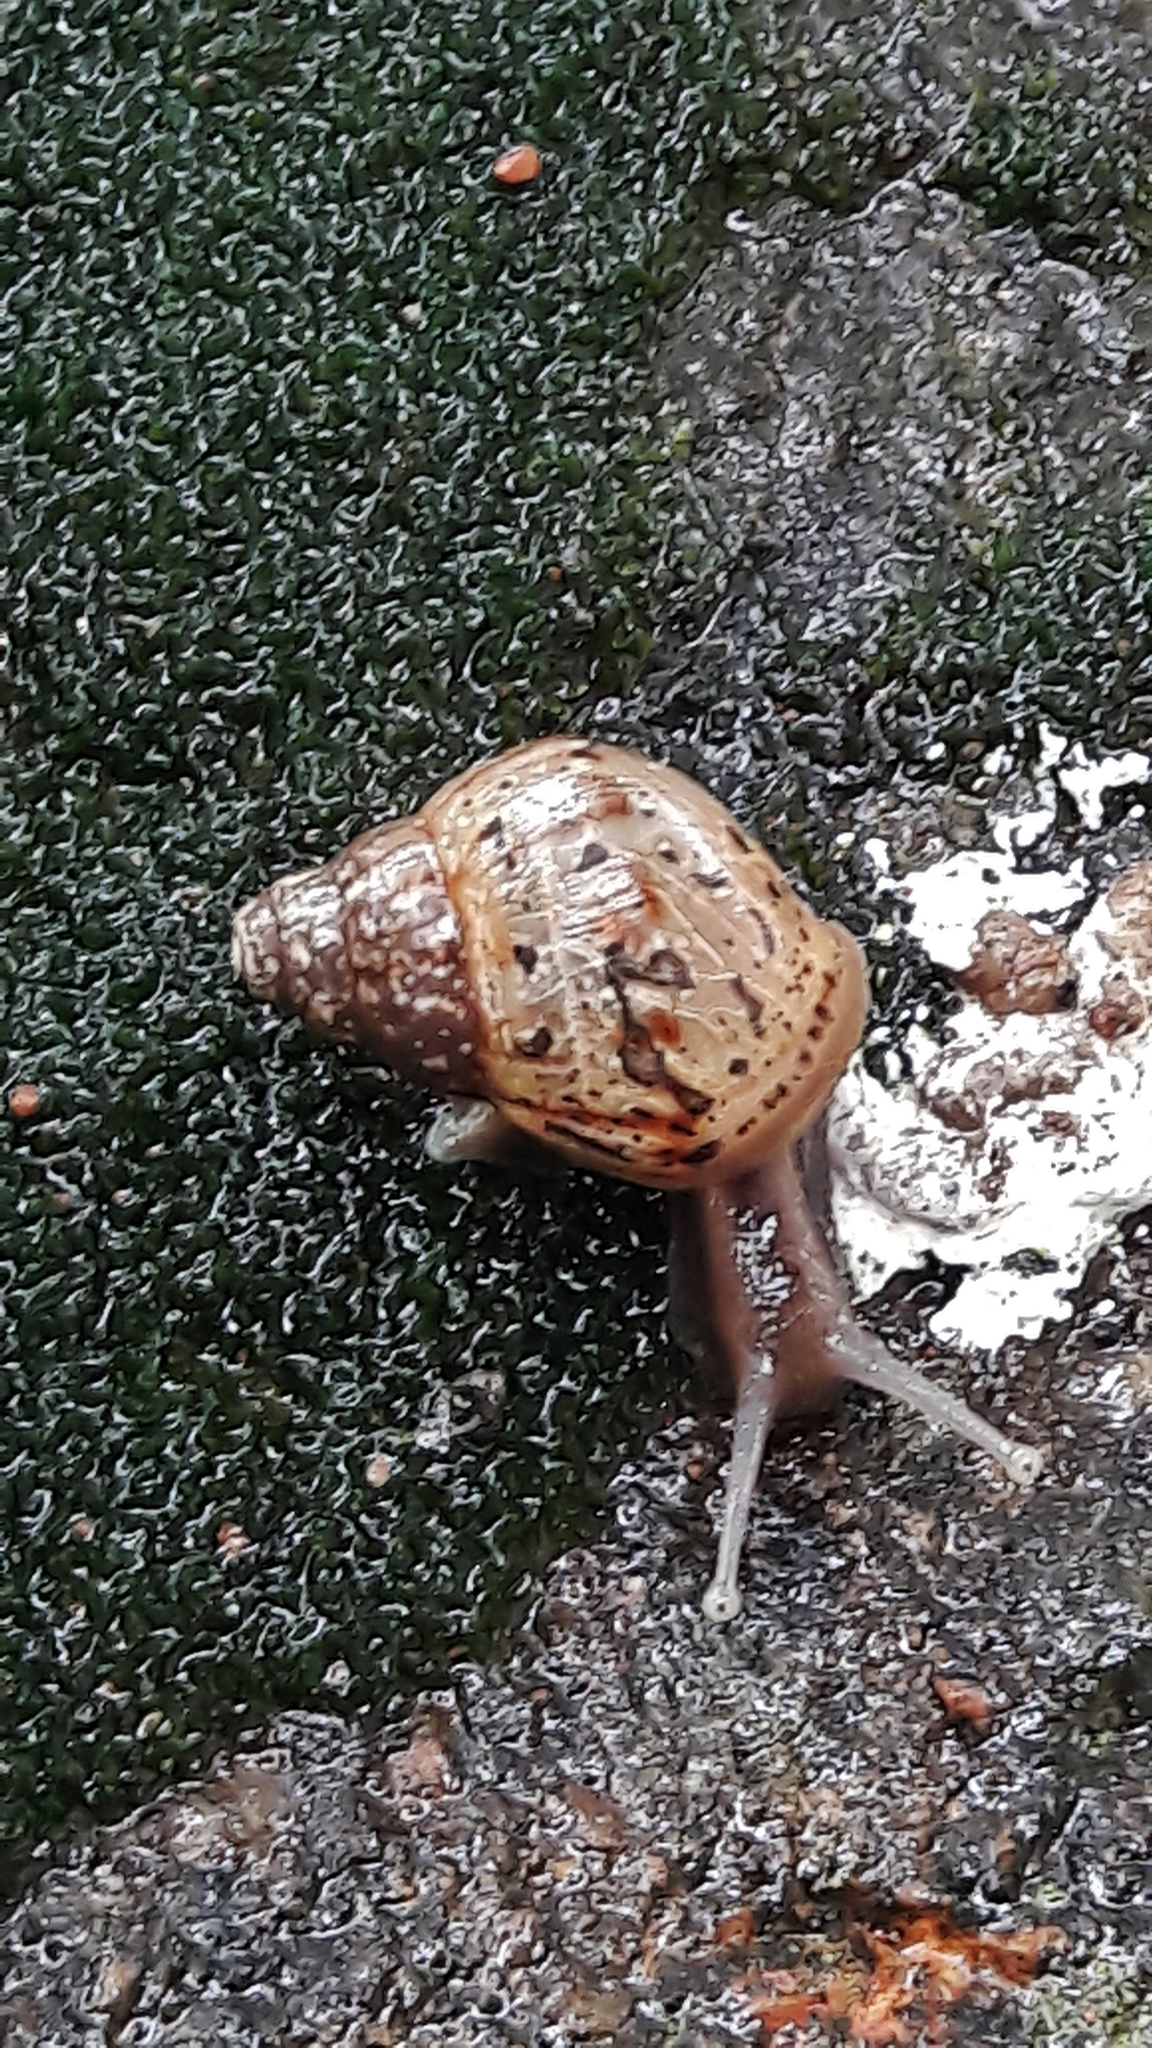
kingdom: Animalia
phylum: Mollusca
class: Gastropoda
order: Stylommatophora
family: Achatinidae
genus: Lissachatina
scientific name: Lissachatina fulica
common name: Giant african snail
